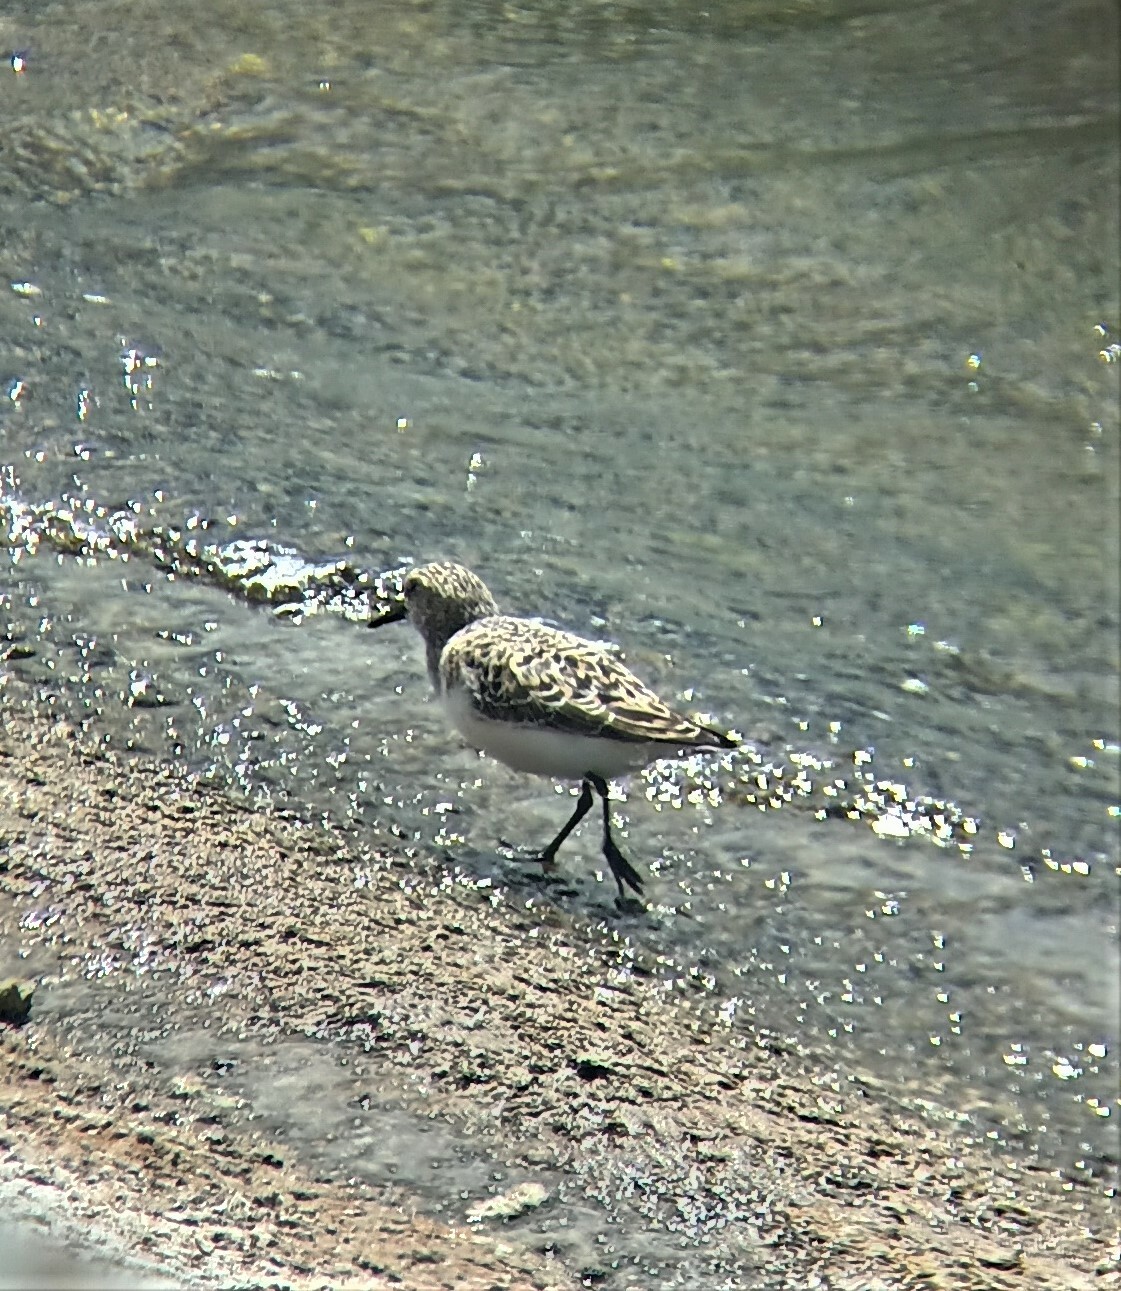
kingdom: Animalia
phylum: Chordata
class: Aves
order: Charadriiformes
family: Scolopacidae
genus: Calidris
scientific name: Calidris alba
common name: Sanderling
